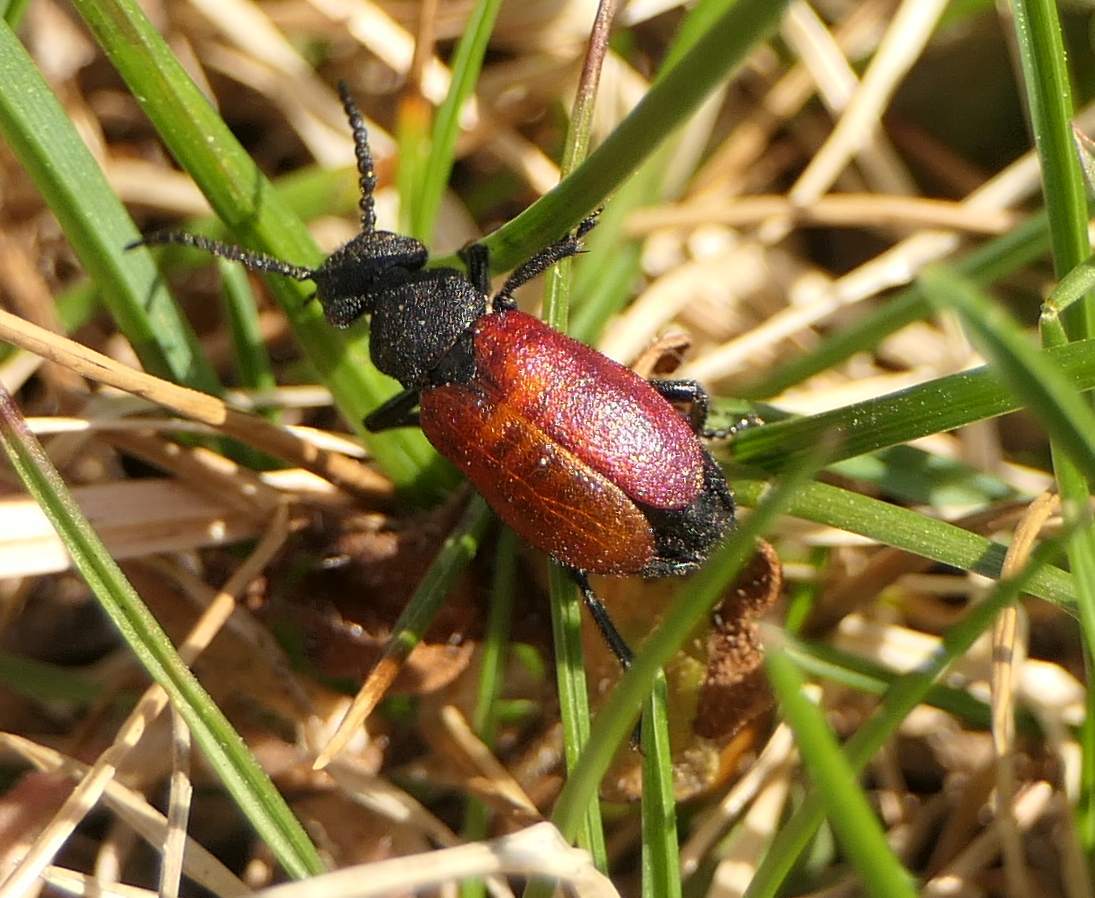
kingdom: Animalia
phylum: Arthropoda
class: Insecta
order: Coleoptera
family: Meloidae
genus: Tricrania
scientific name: Tricrania sanguinipennis
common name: Blood-winged blister beetle
